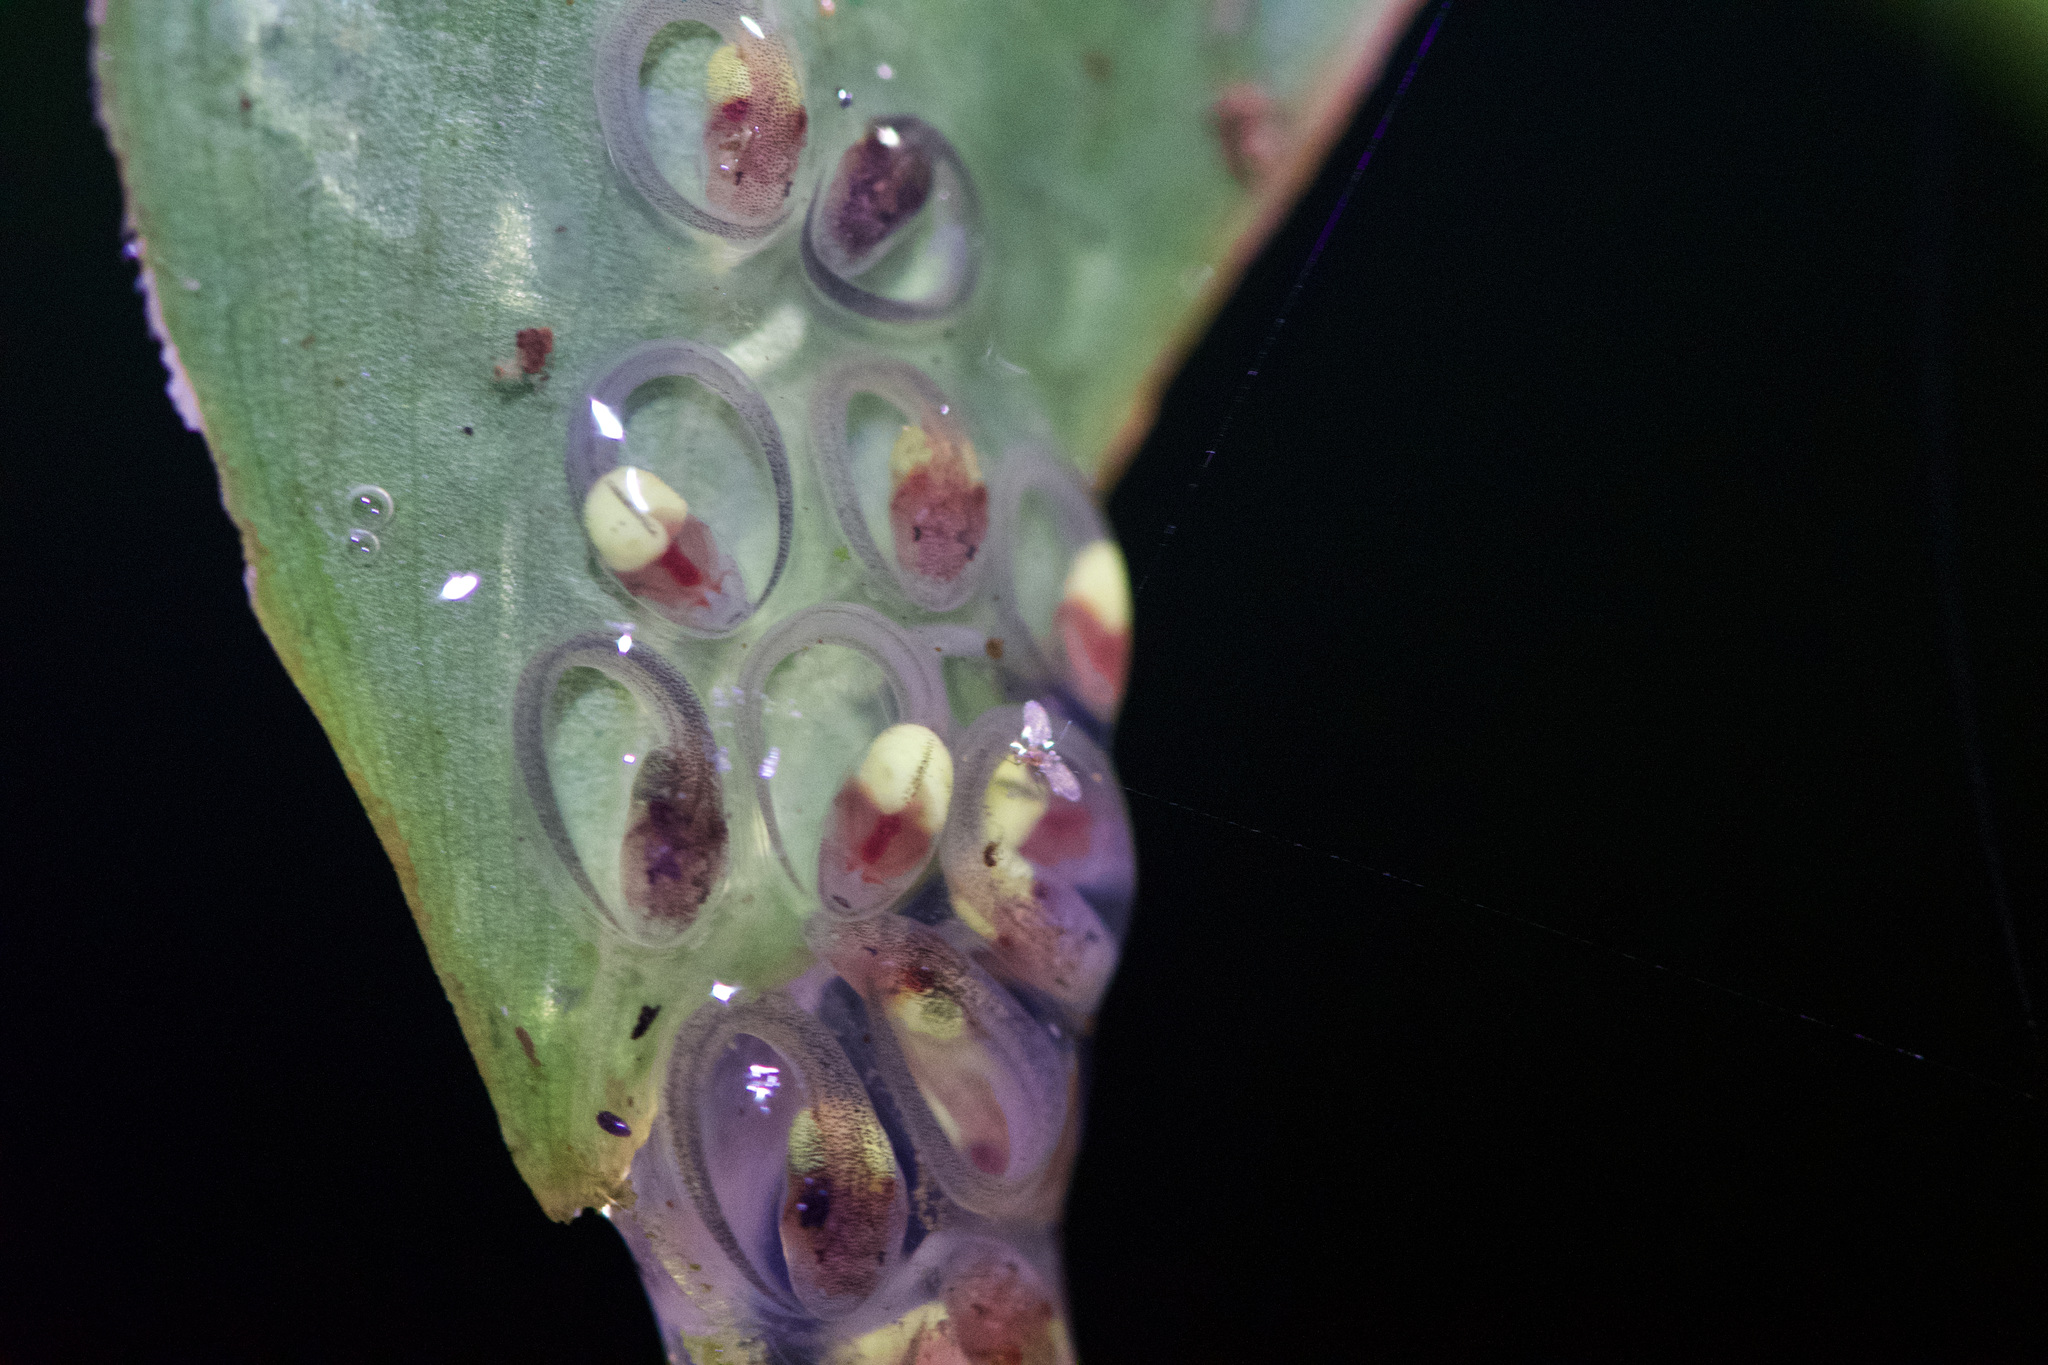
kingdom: Animalia
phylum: Chordata
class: Amphibia
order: Anura
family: Phyllomedusidae
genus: Agalychnis
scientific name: Agalychnis callidryas
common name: Red-eyed treefrog
